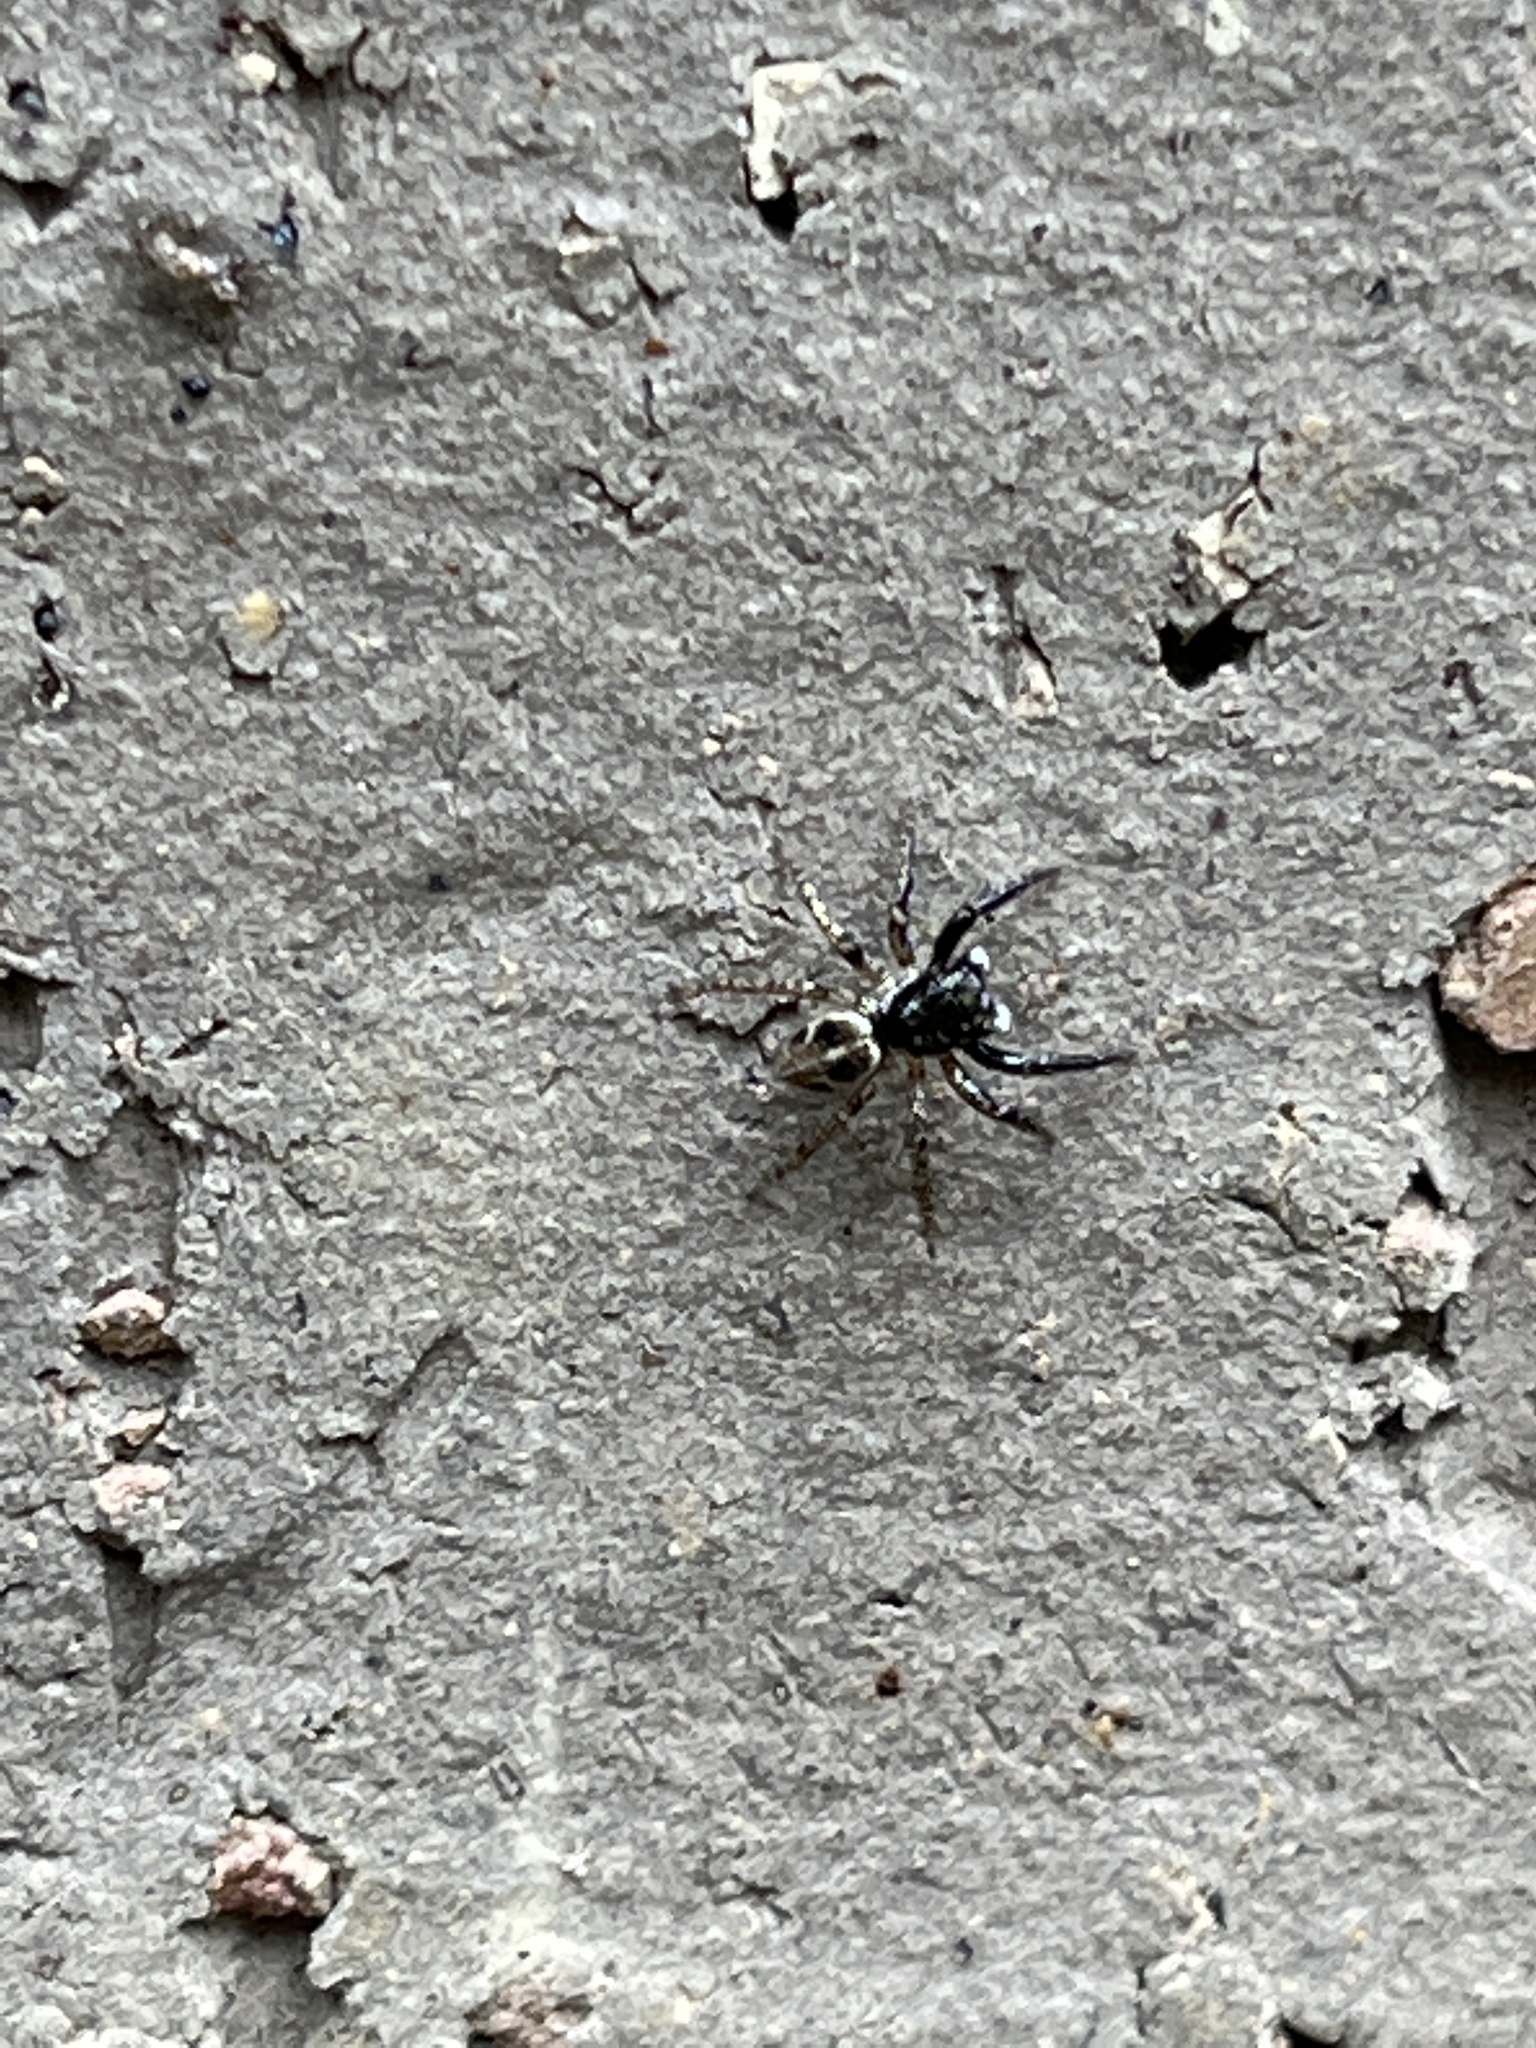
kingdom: Animalia
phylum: Arthropoda
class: Arachnida
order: Araneae
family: Salticidae
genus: Anasaitis
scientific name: Anasaitis canosa
